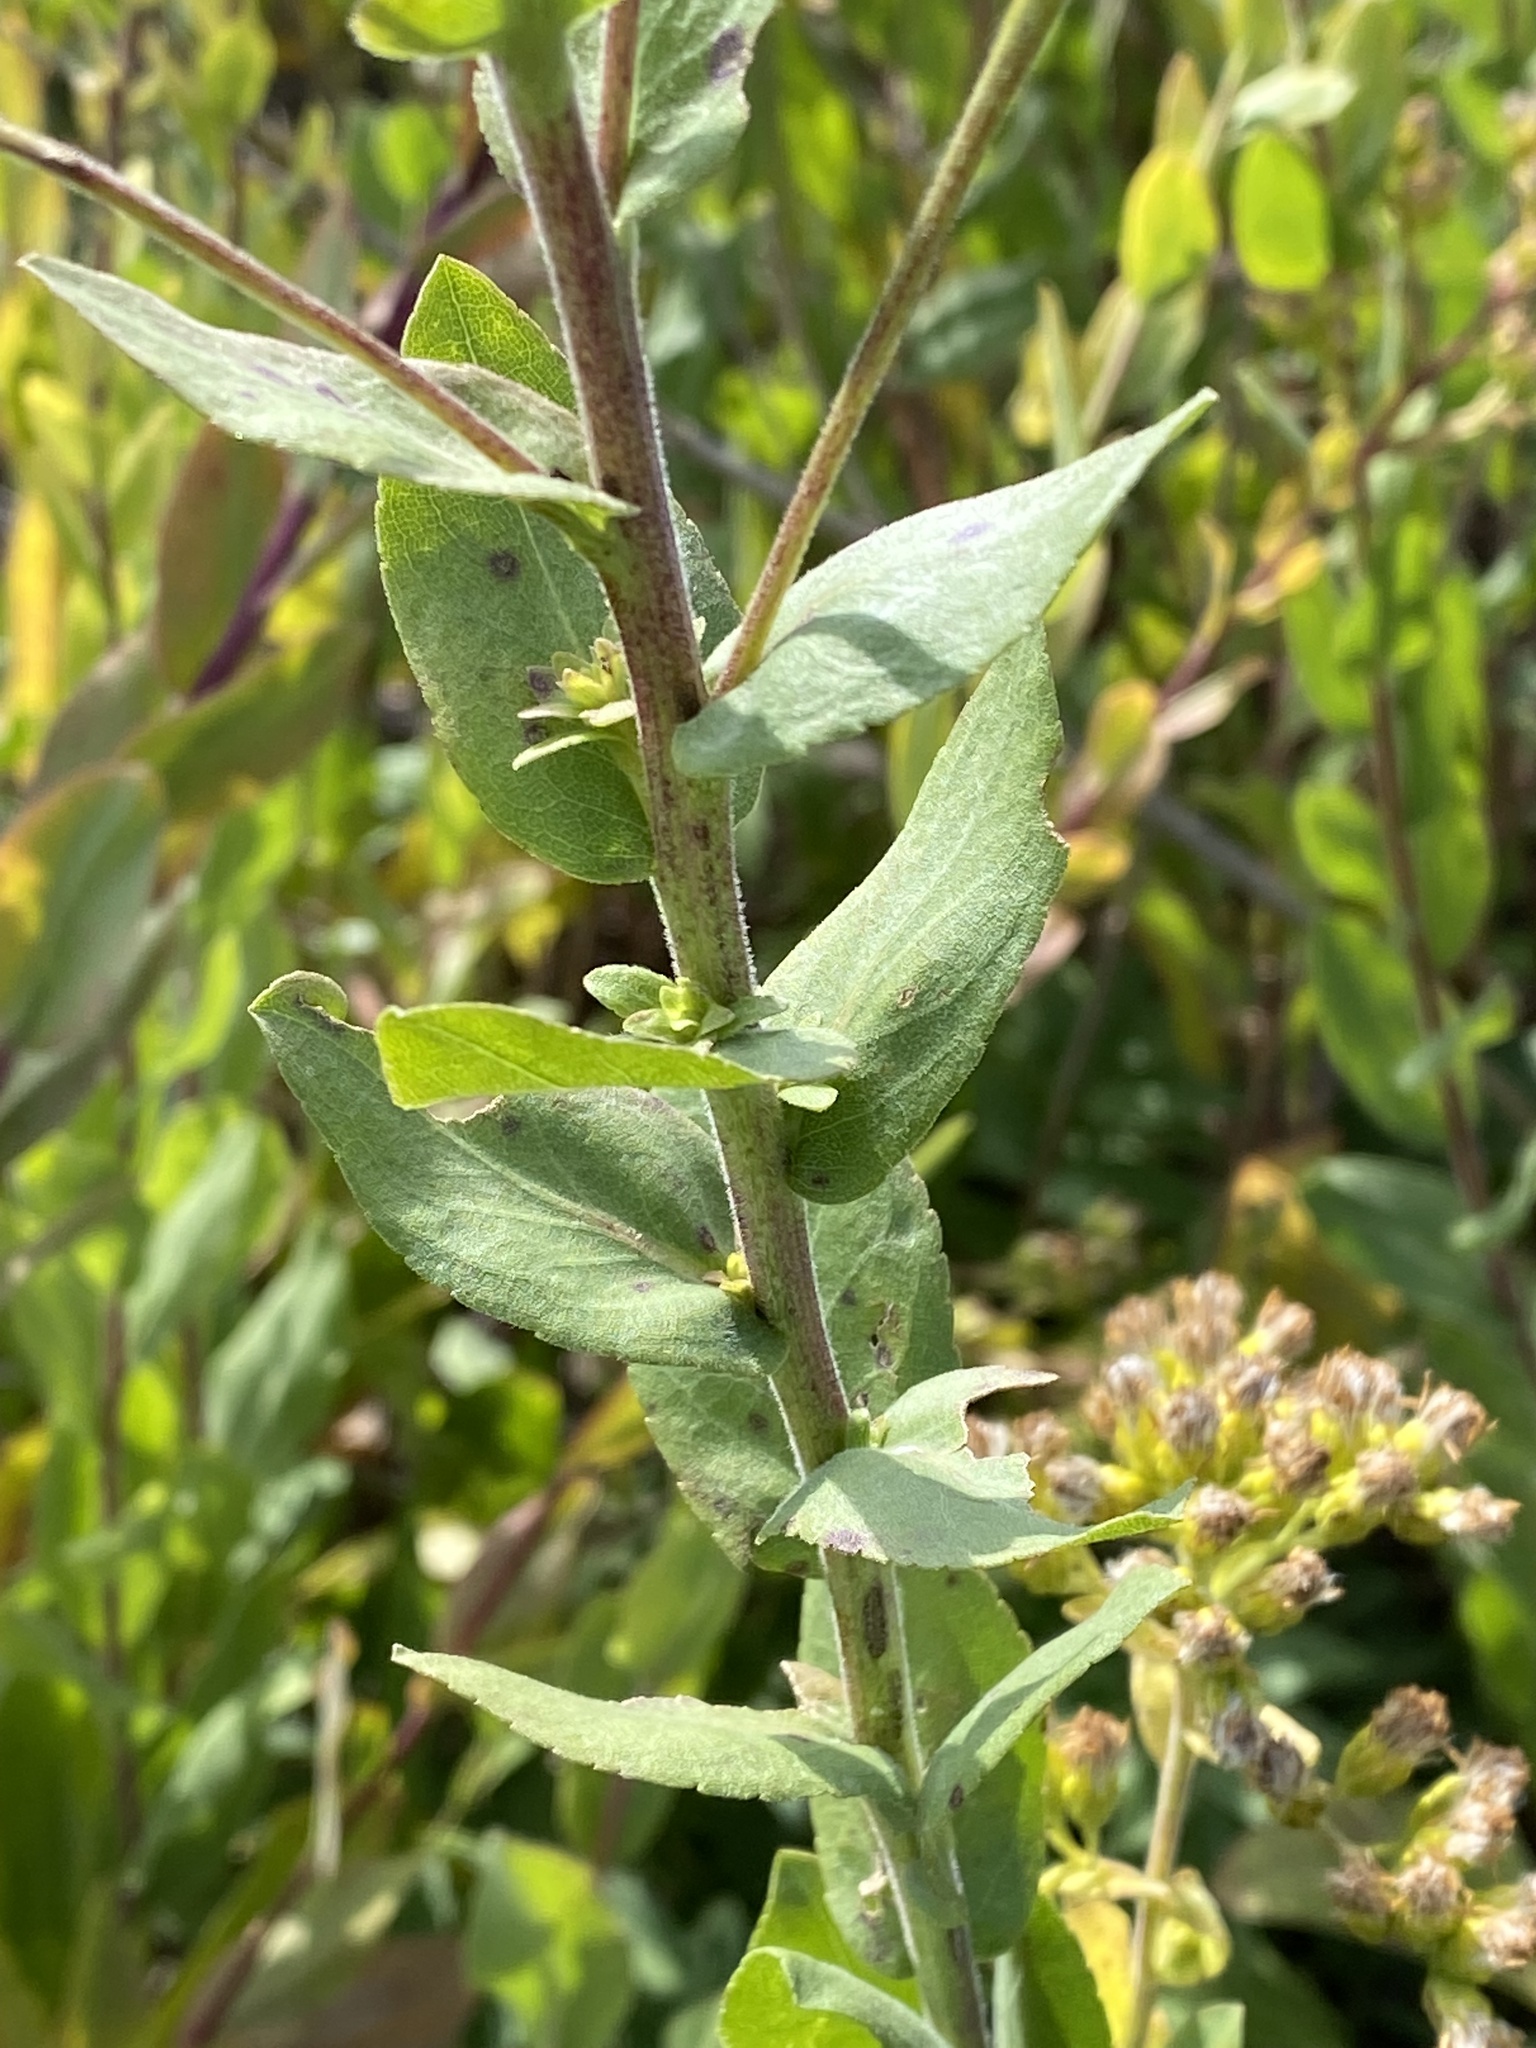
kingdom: Plantae
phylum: Tracheophyta
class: Magnoliopsida
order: Asterales
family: Asteraceae
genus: Solidago
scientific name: Solidago rigida
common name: Rigid goldenrod
